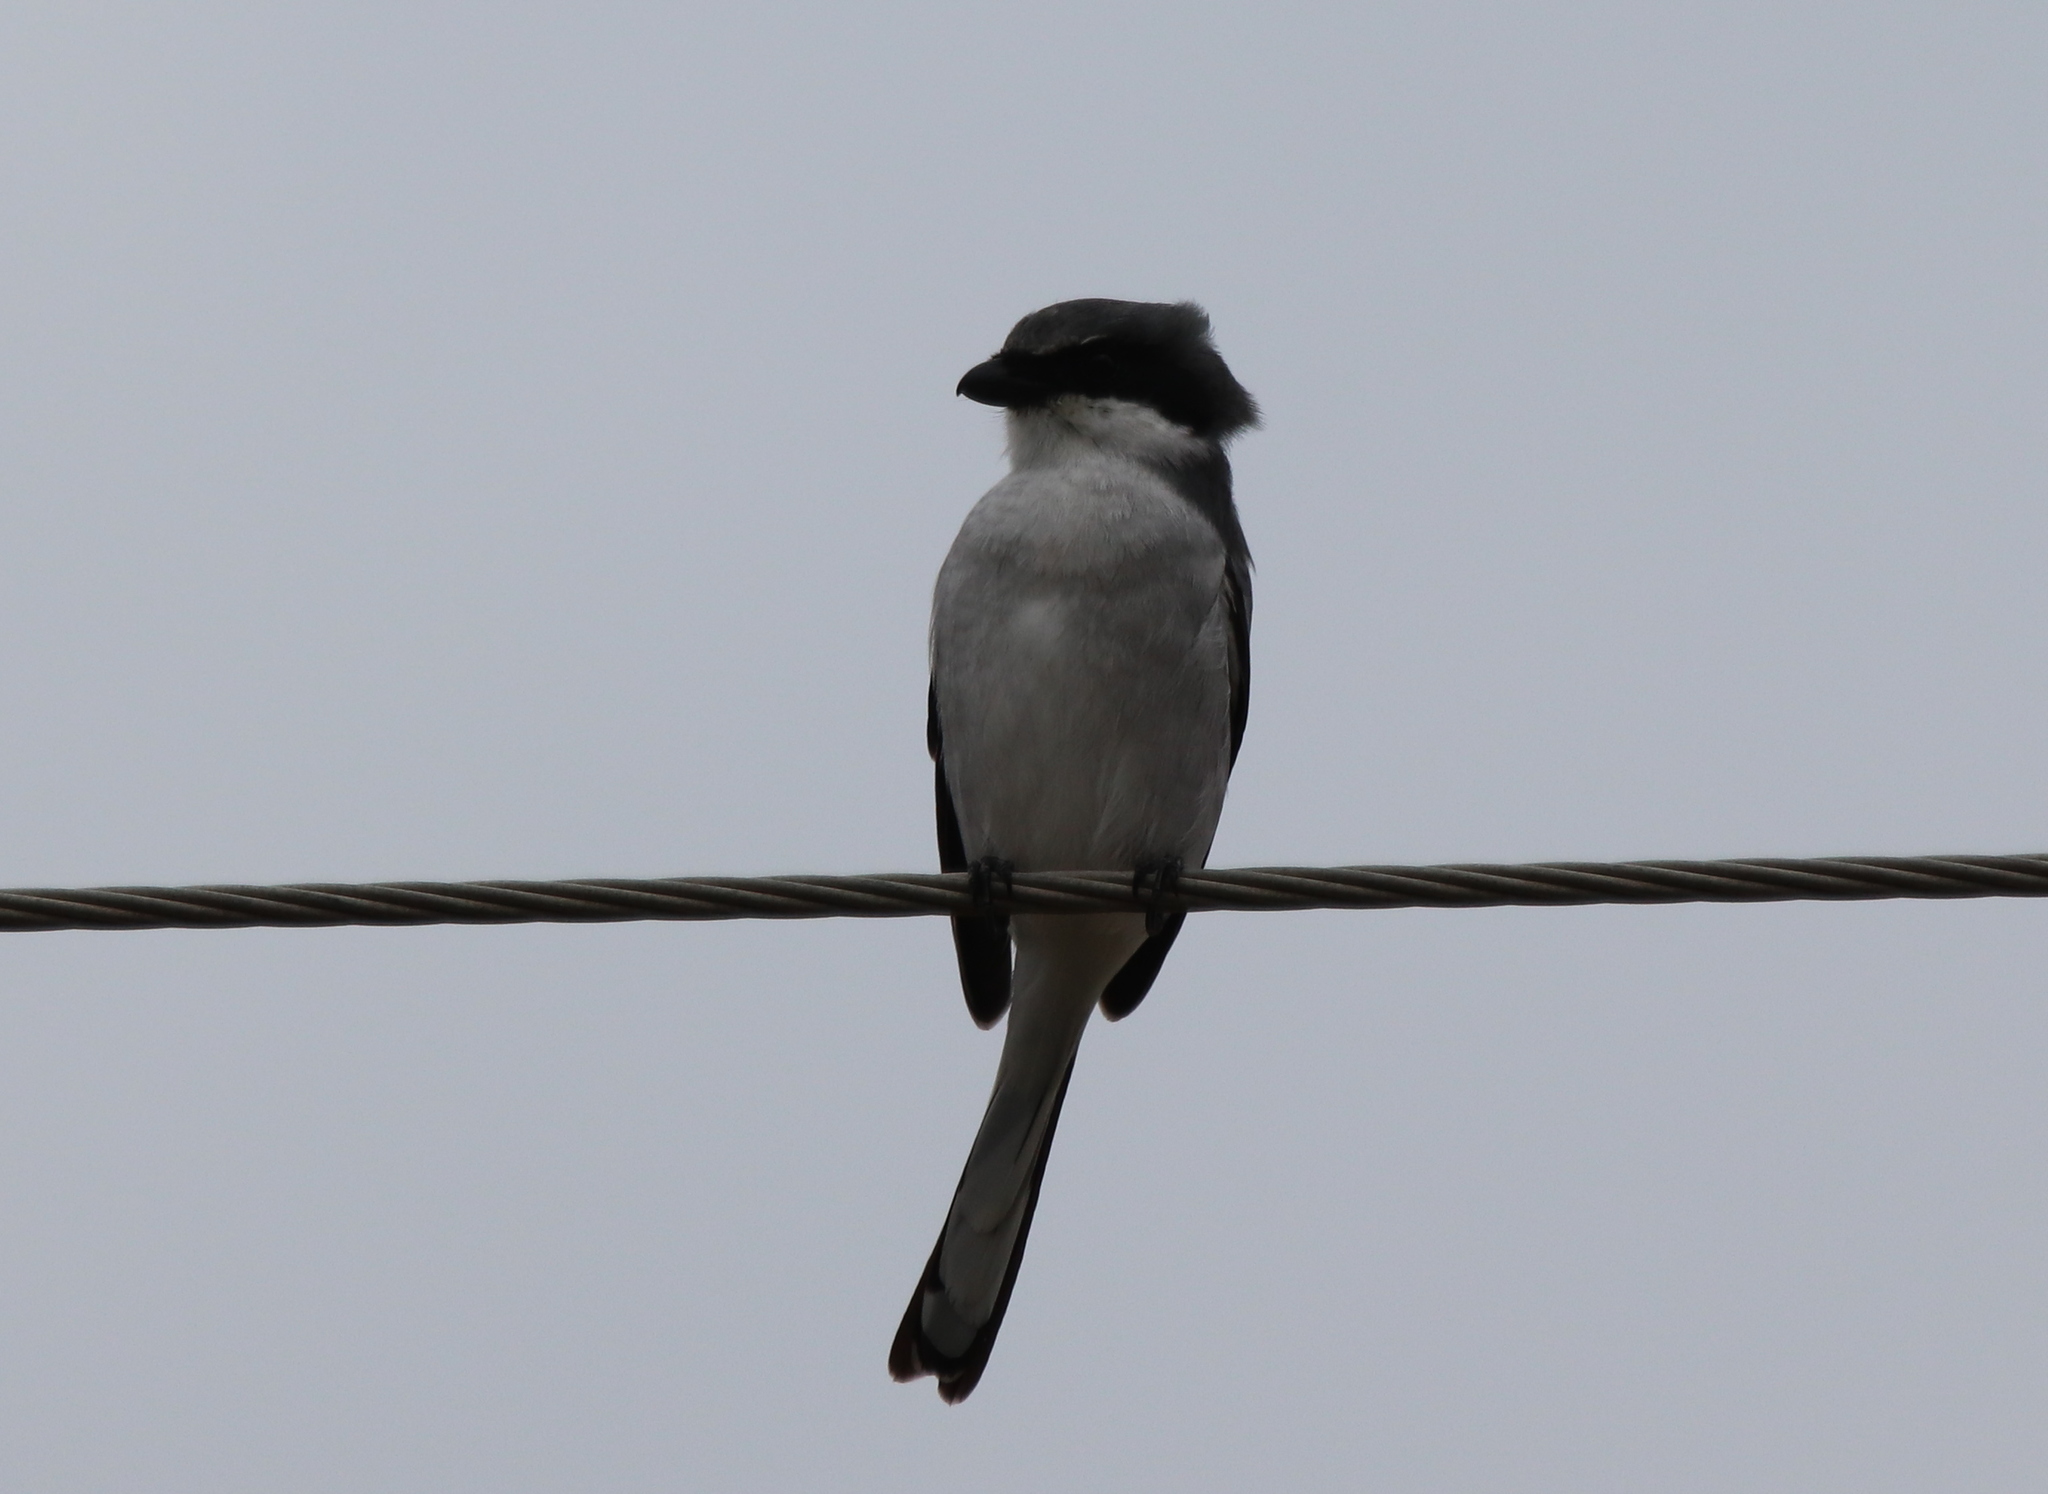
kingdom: Animalia
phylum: Chordata
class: Aves
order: Passeriformes
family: Laniidae
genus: Lanius
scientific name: Lanius ludovicianus
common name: Loggerhead shrike
